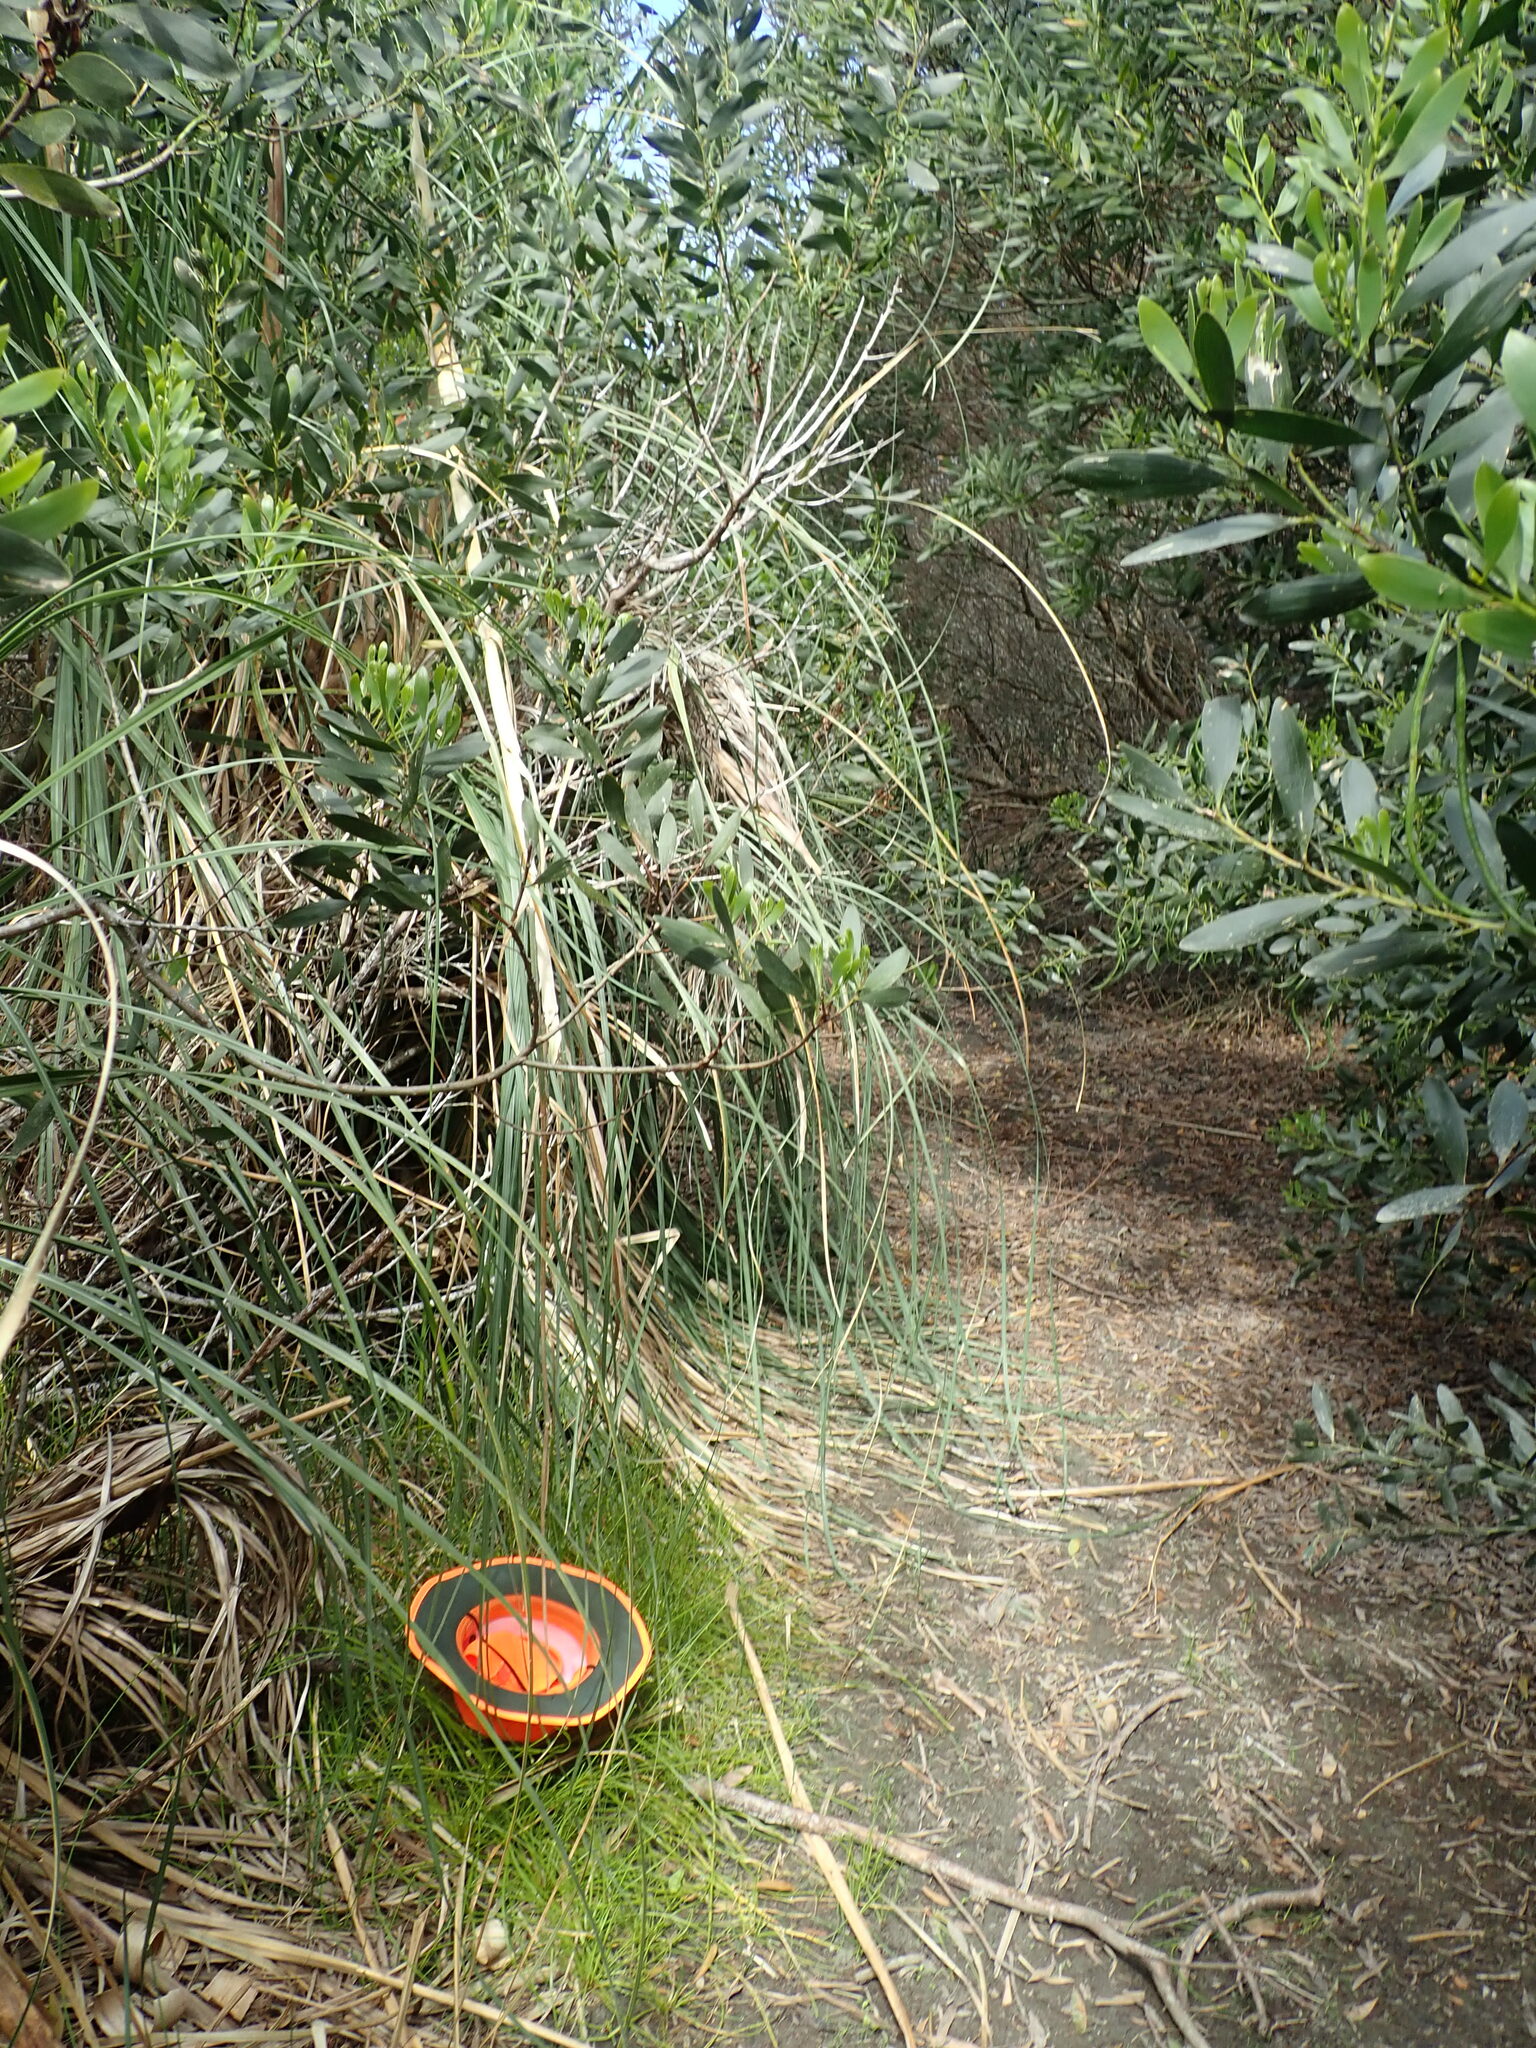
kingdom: Animalia
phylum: Arthropoda
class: Insecta
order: Coleoptera
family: Coccinellidae
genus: Halmus
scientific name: Halmus chalybeus
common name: Steel blue ladybird beetle
